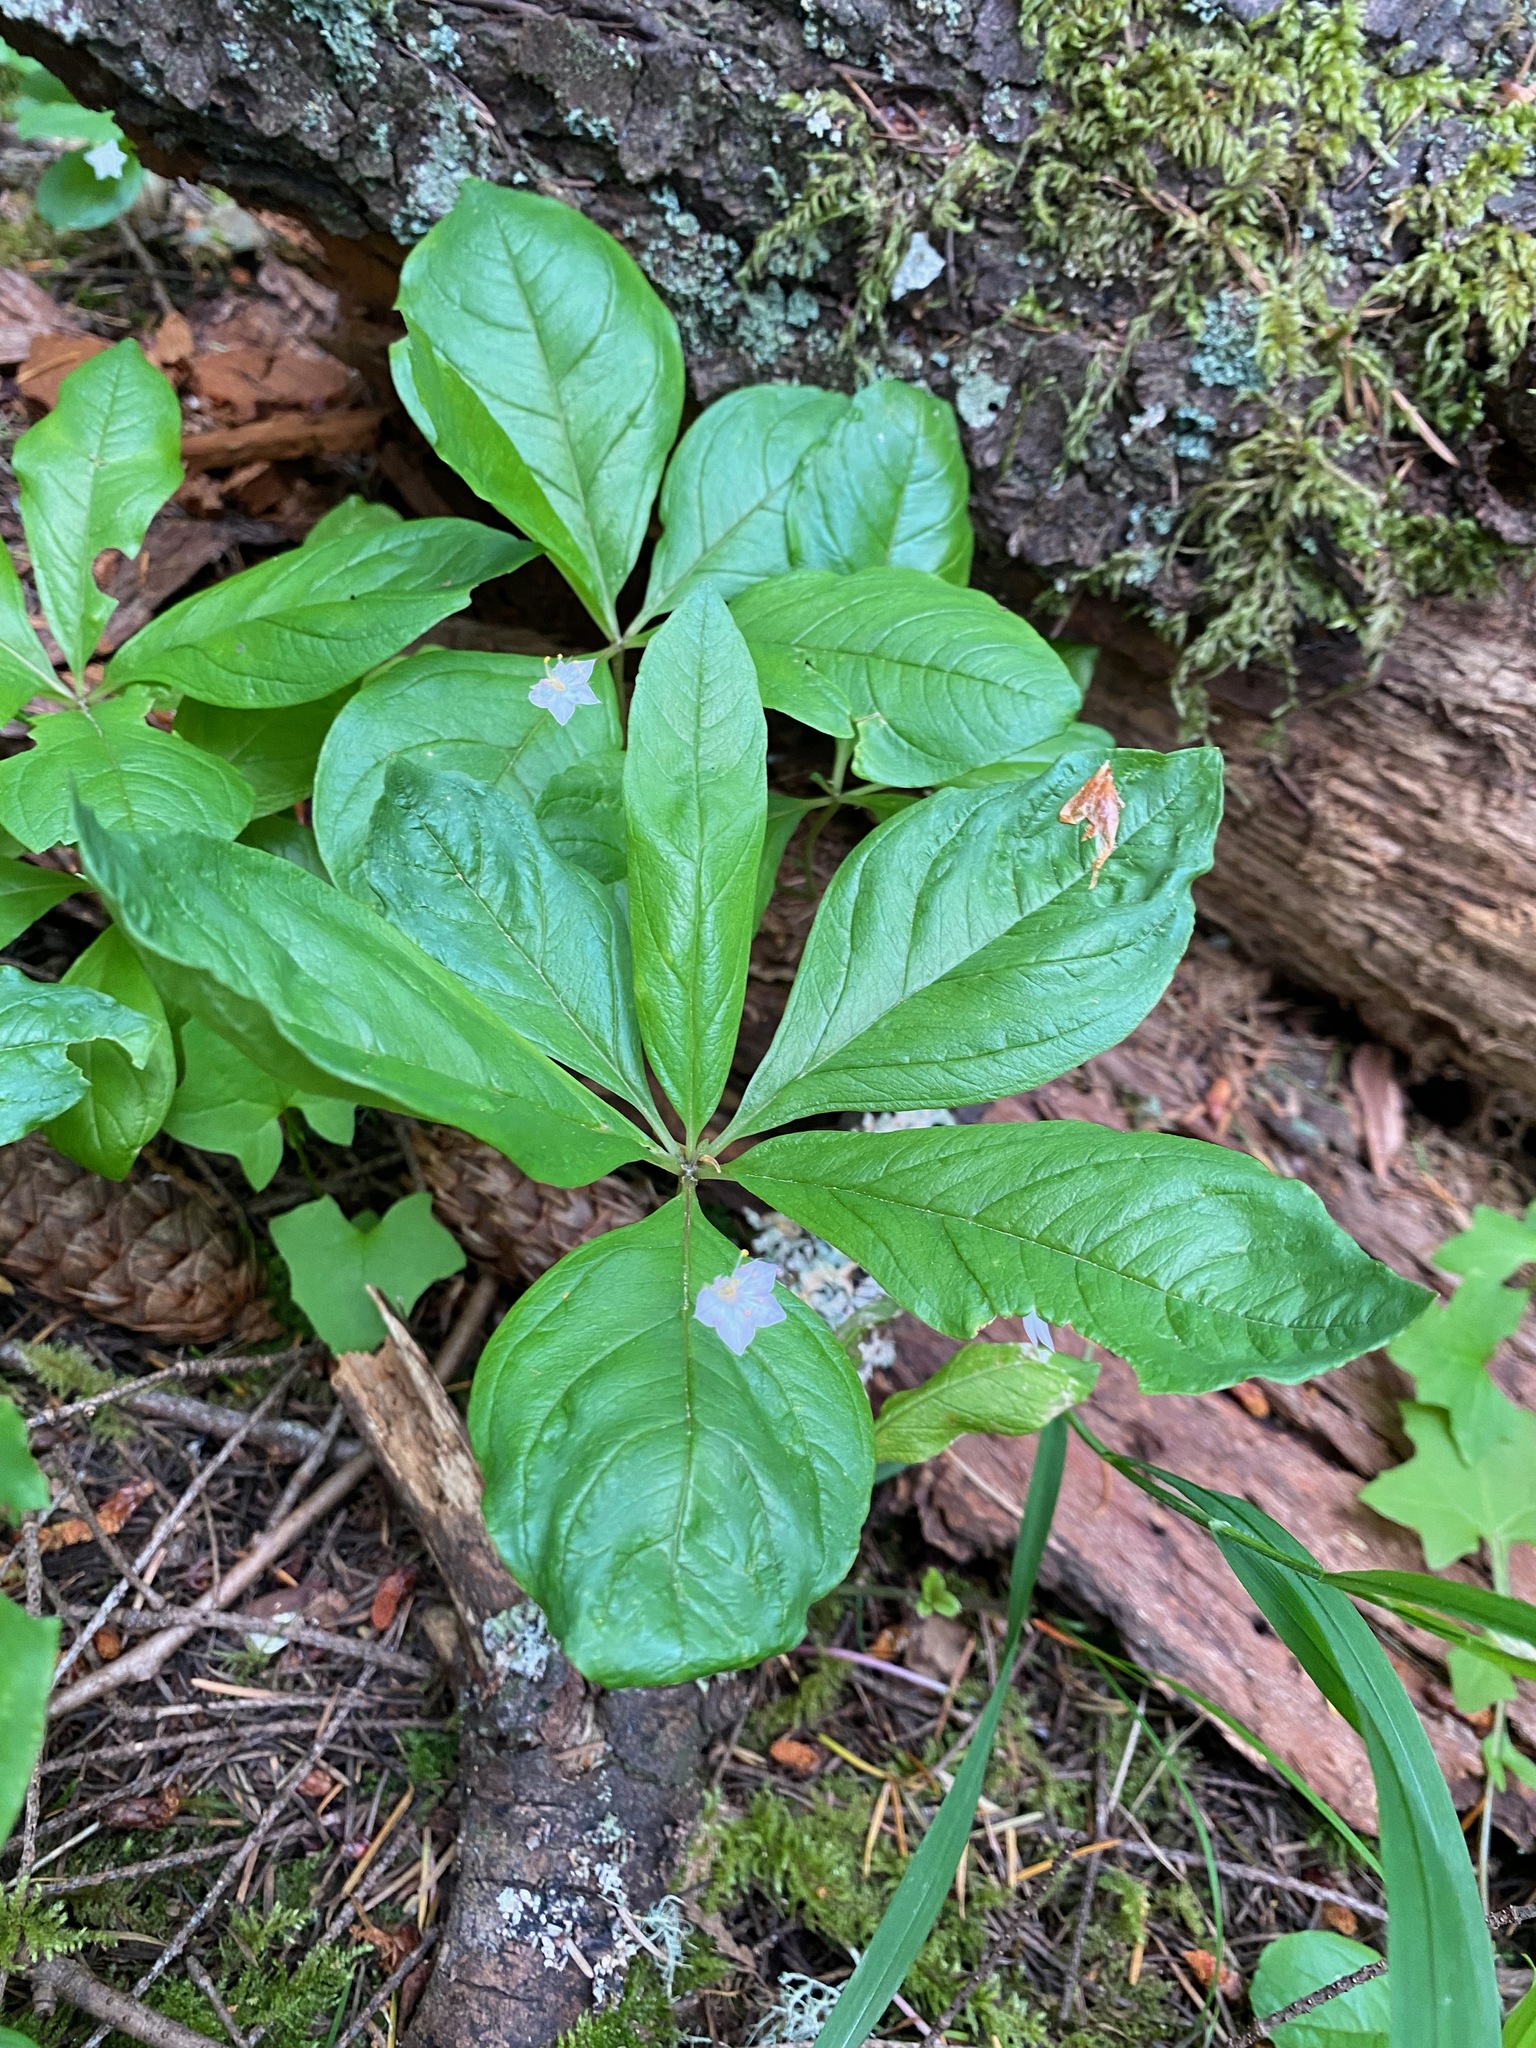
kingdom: Plantae
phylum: Tracheophyta
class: Magnoliopsida
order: Ericales
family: Primulaceae
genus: Lysimachia
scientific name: Lysimachia latifolia
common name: Pacific starflower
